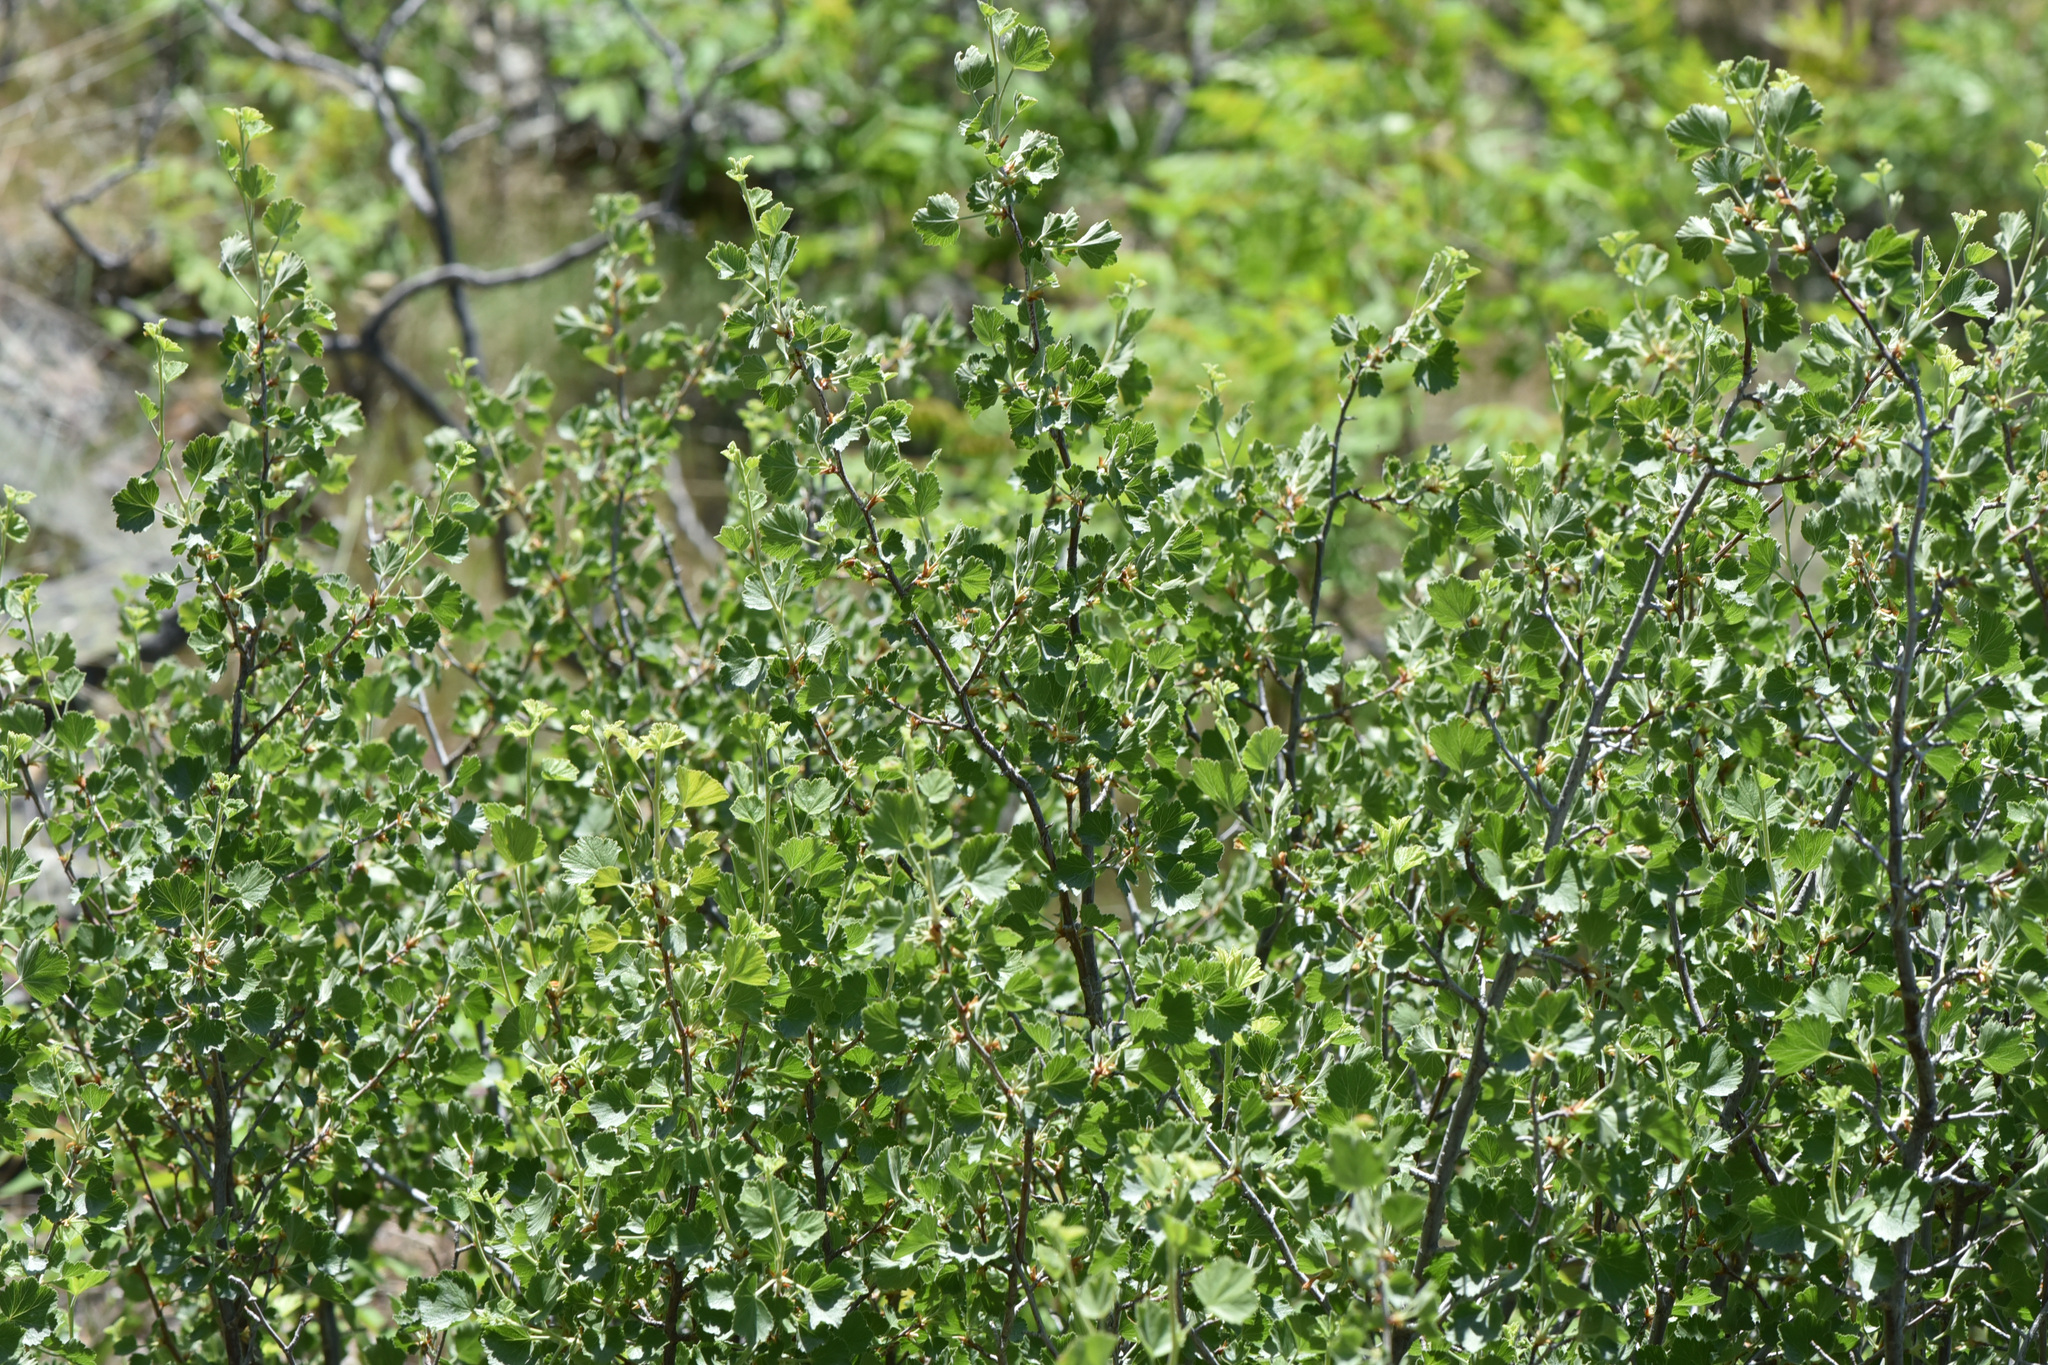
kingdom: Plantae
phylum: Tracheophyta
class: Magnoliopsida
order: Saxifragales
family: Grossulariaceae
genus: Ribes
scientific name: Ribes cereum
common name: Wax currant
